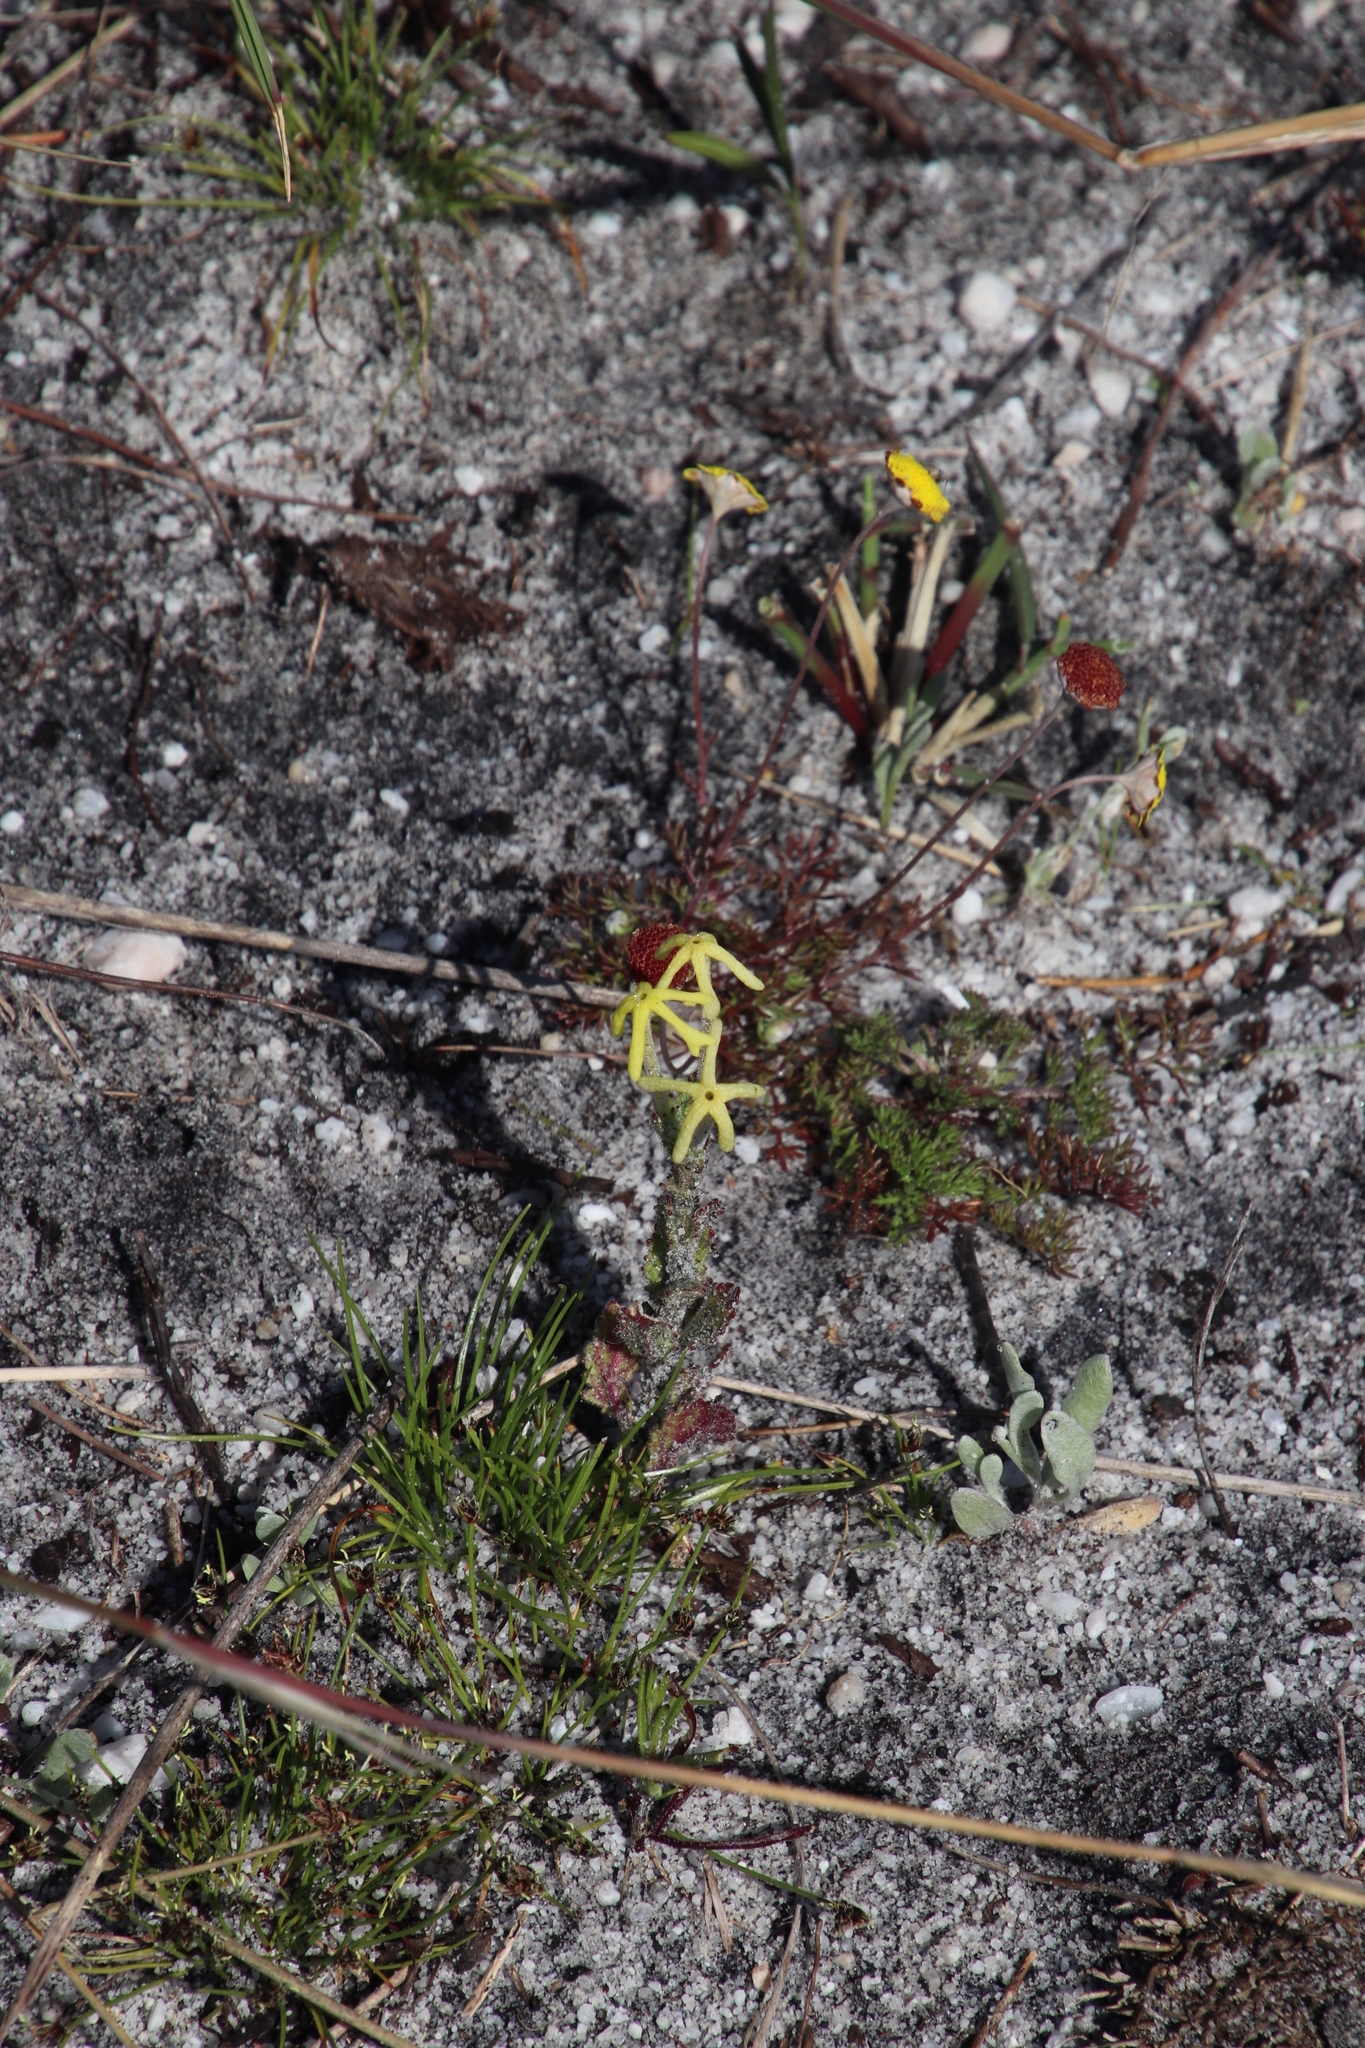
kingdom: Plantae
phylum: Tracheophyta
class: Magnoliopsida
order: Lamiales
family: Scrophulariaceae
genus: Lyperia
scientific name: Lyperia tristis
